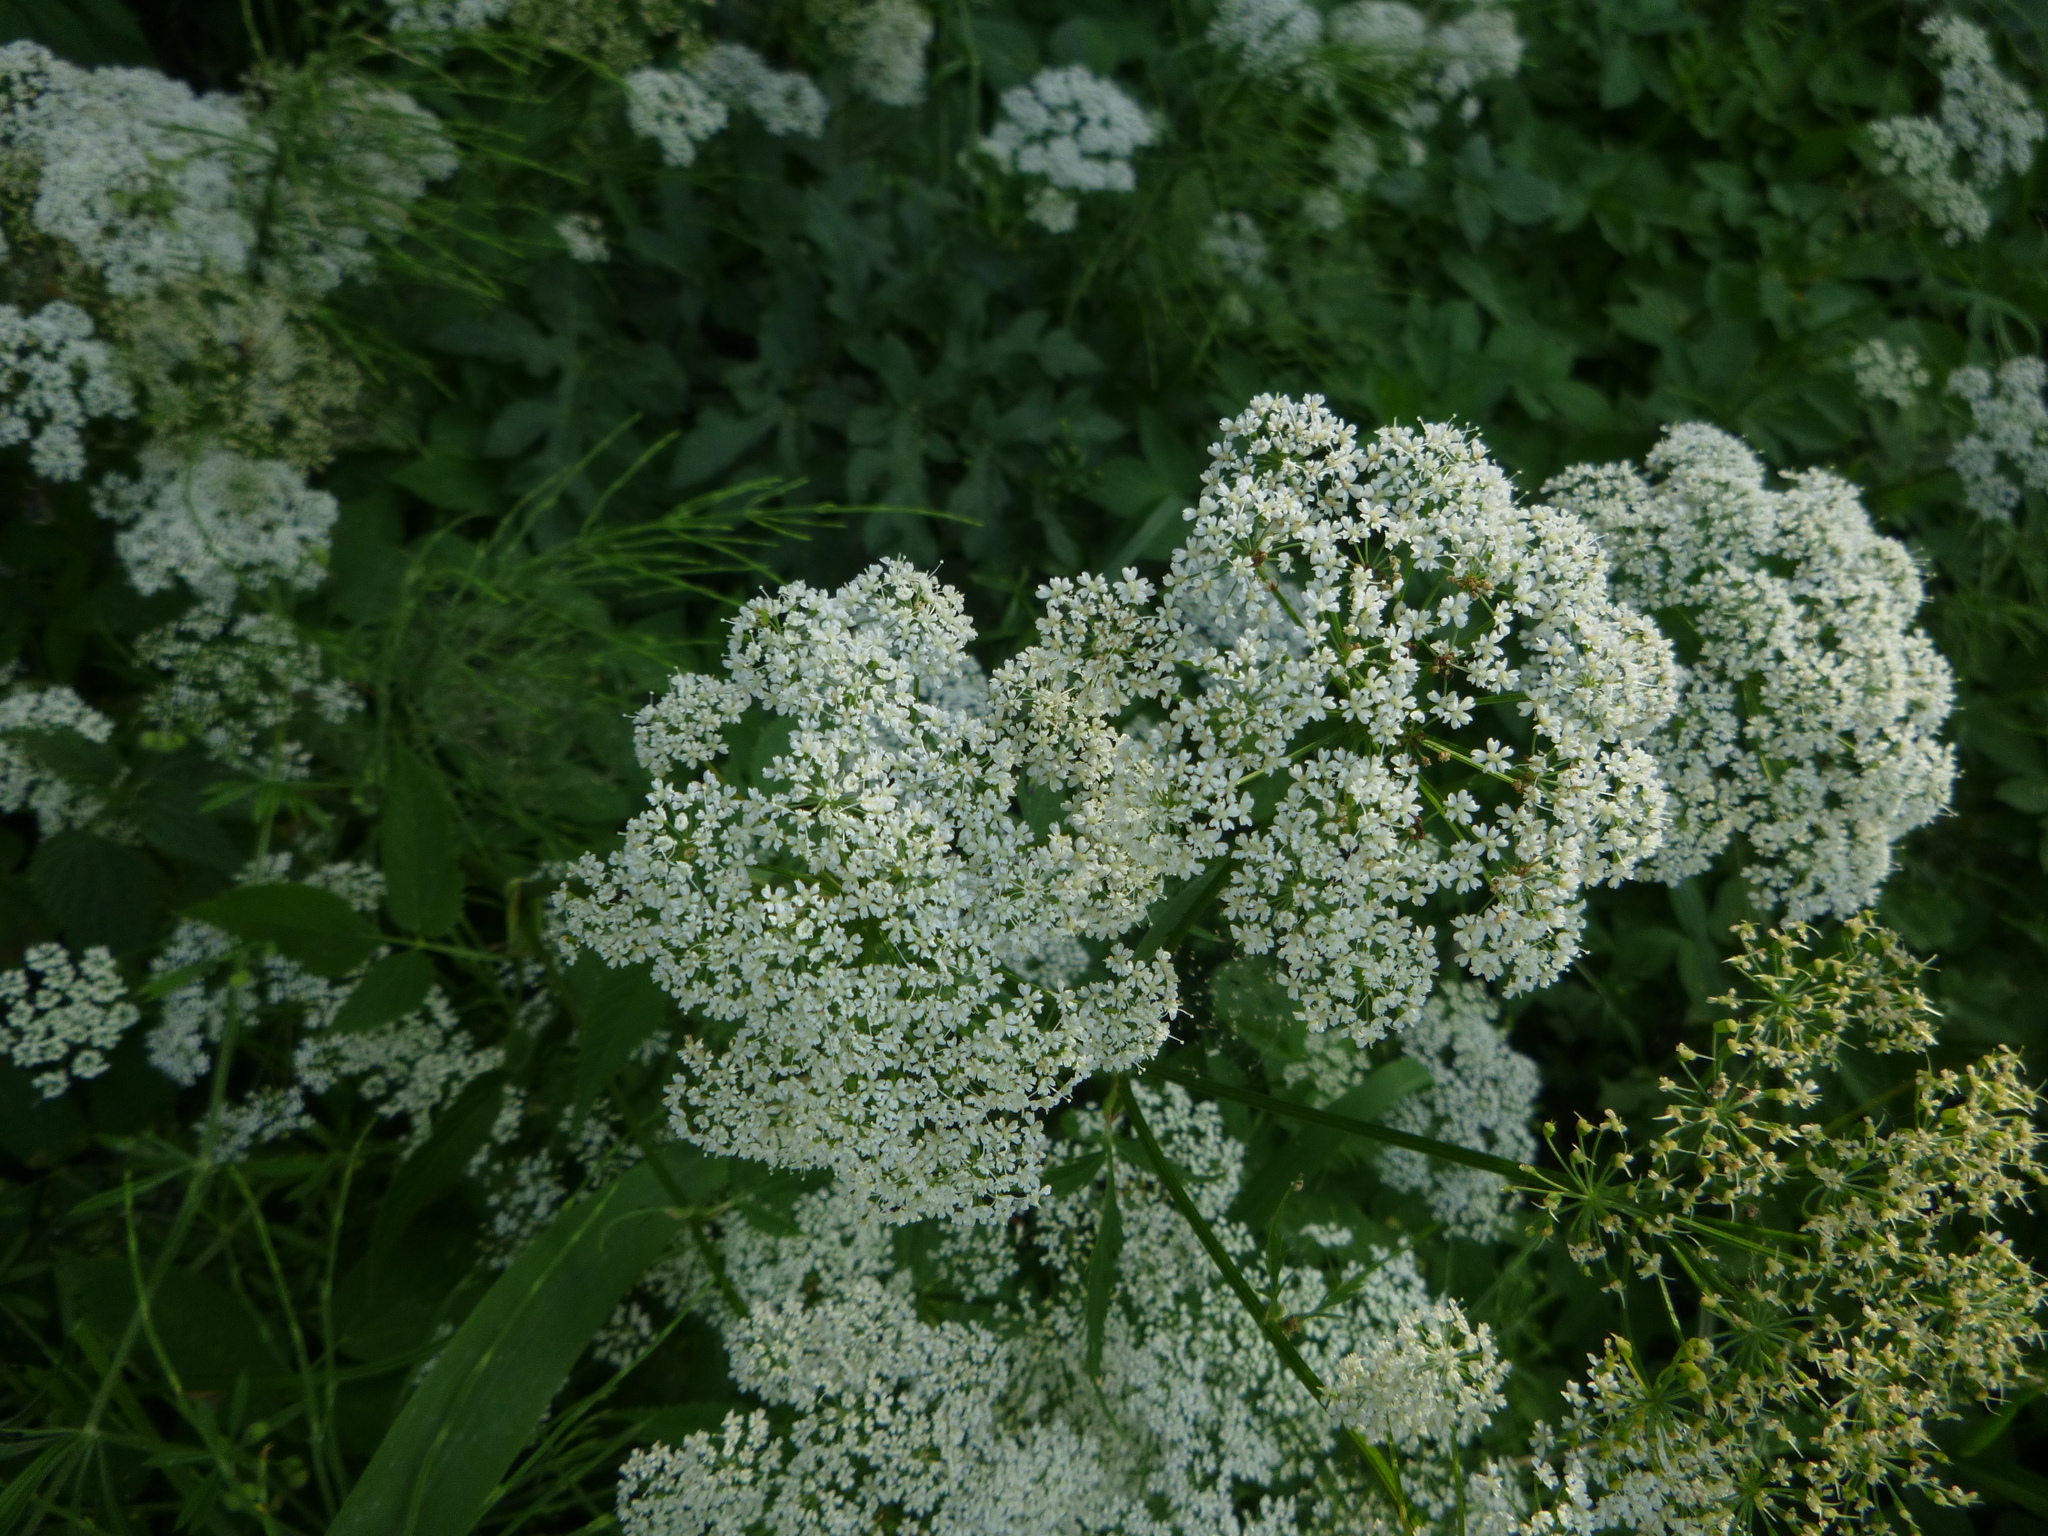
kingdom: Plantae
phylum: Tracheophyta
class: Magnoliopsida
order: Apiales
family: Apiaceae
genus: Aegopodium
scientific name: Aegopodium podagraria
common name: Ground-elder
